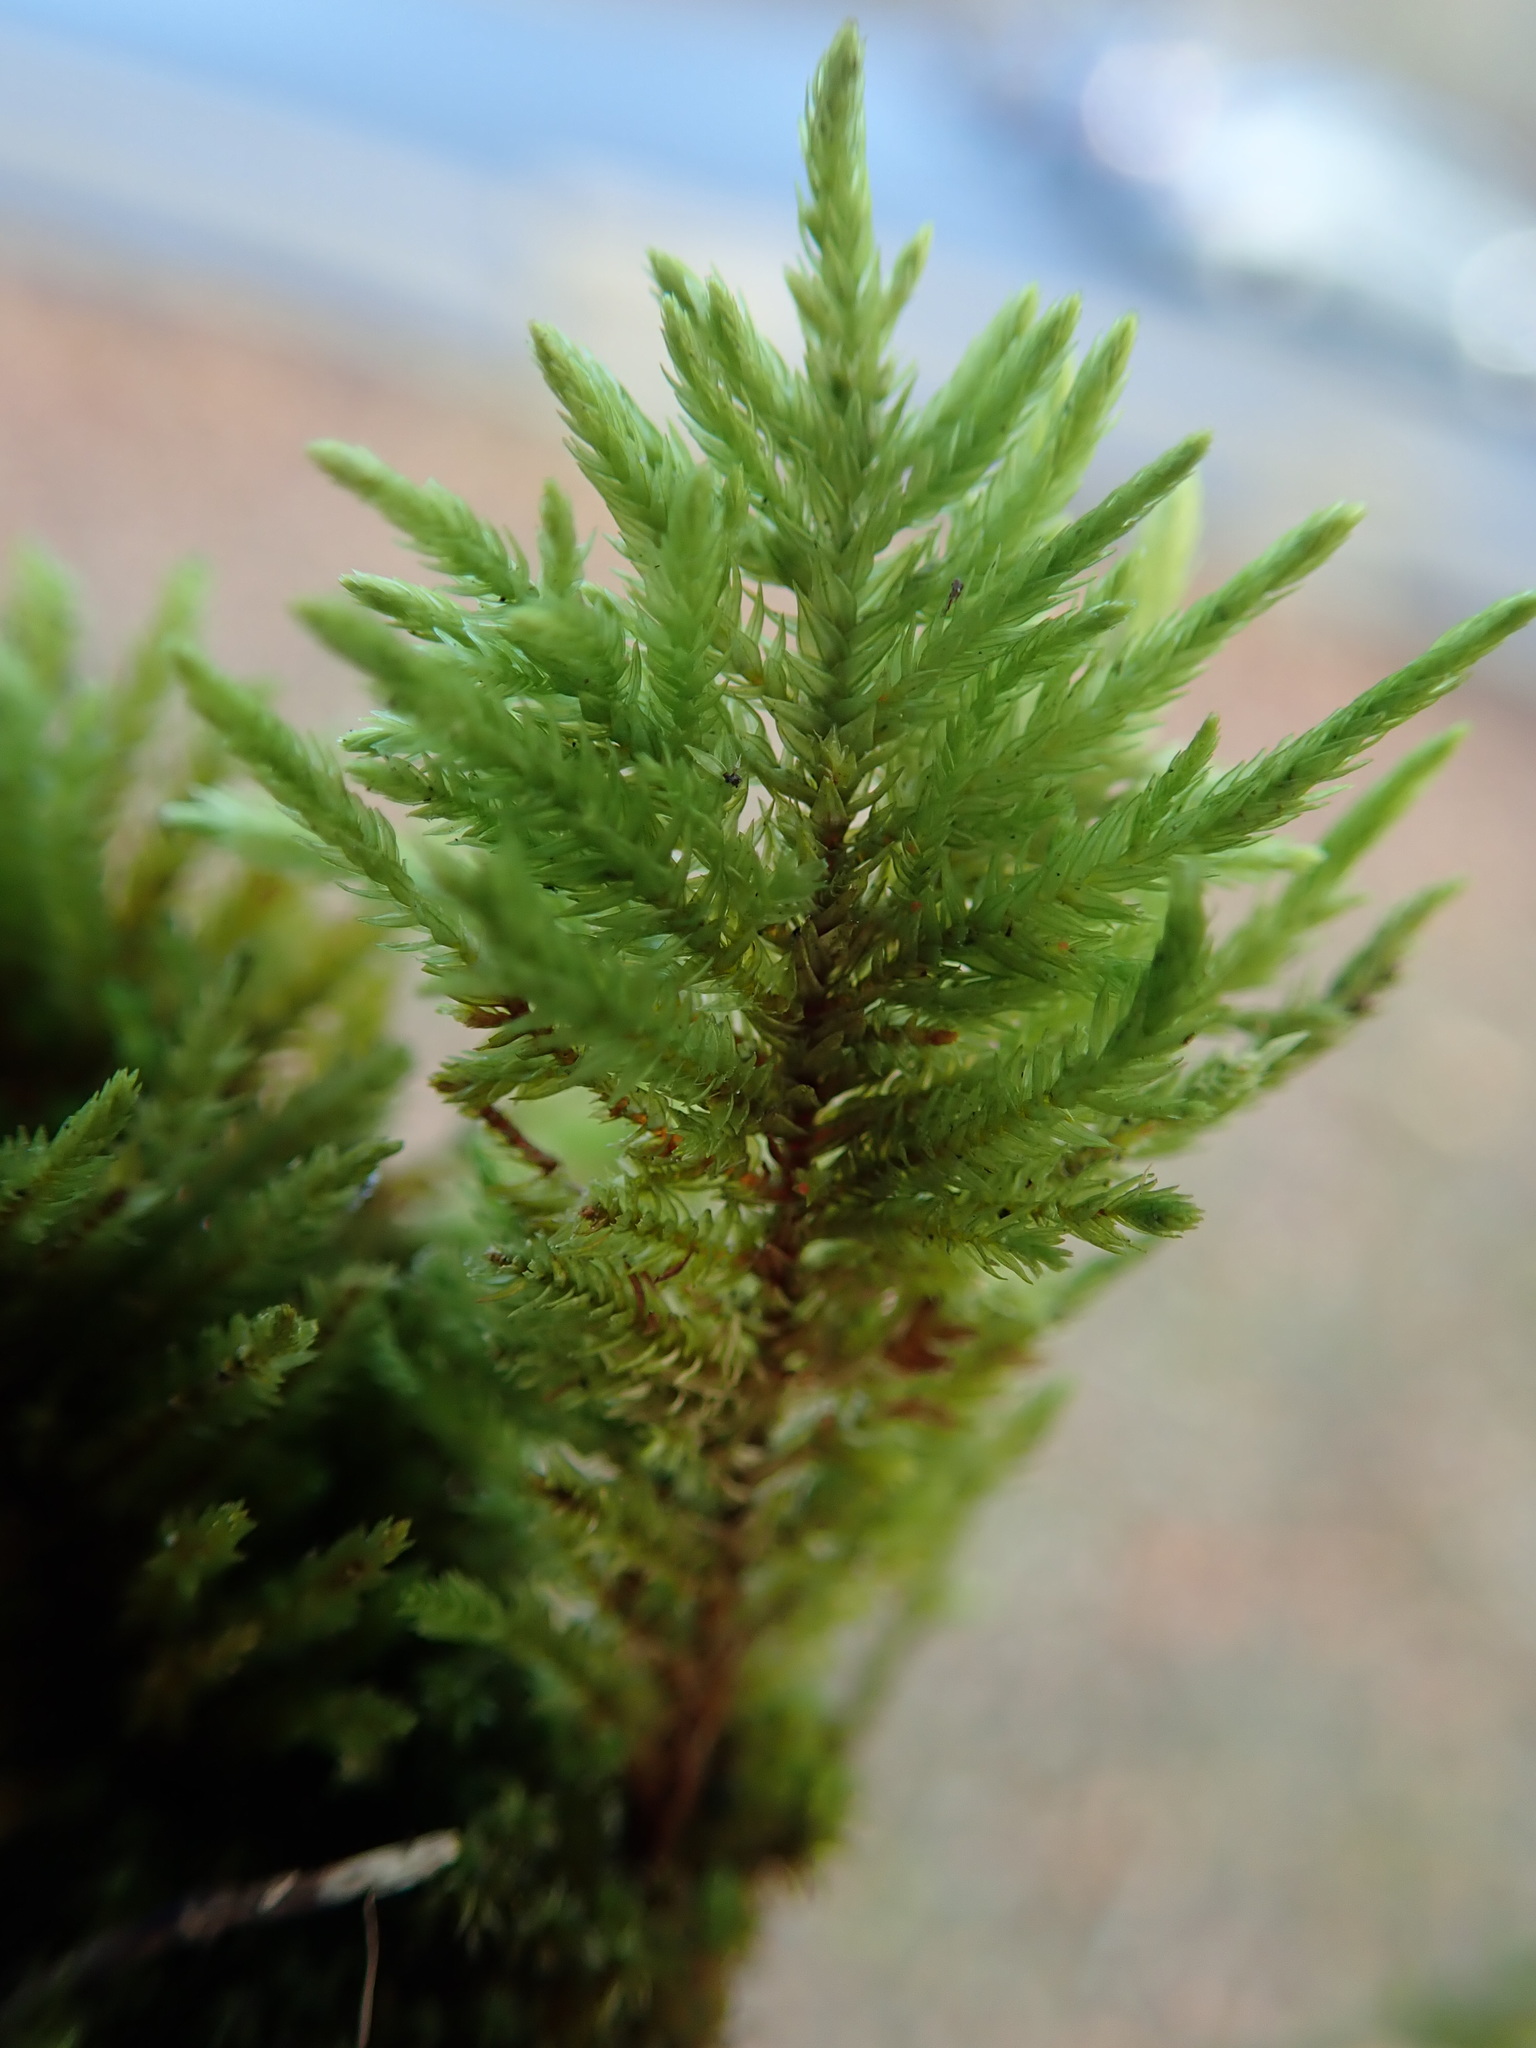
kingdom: Plantae
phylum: Bryophyta
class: Bryopsida
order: Hypnales
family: Cryphaeaceae
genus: Dendroalsia
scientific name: Dendroalsia abietina
